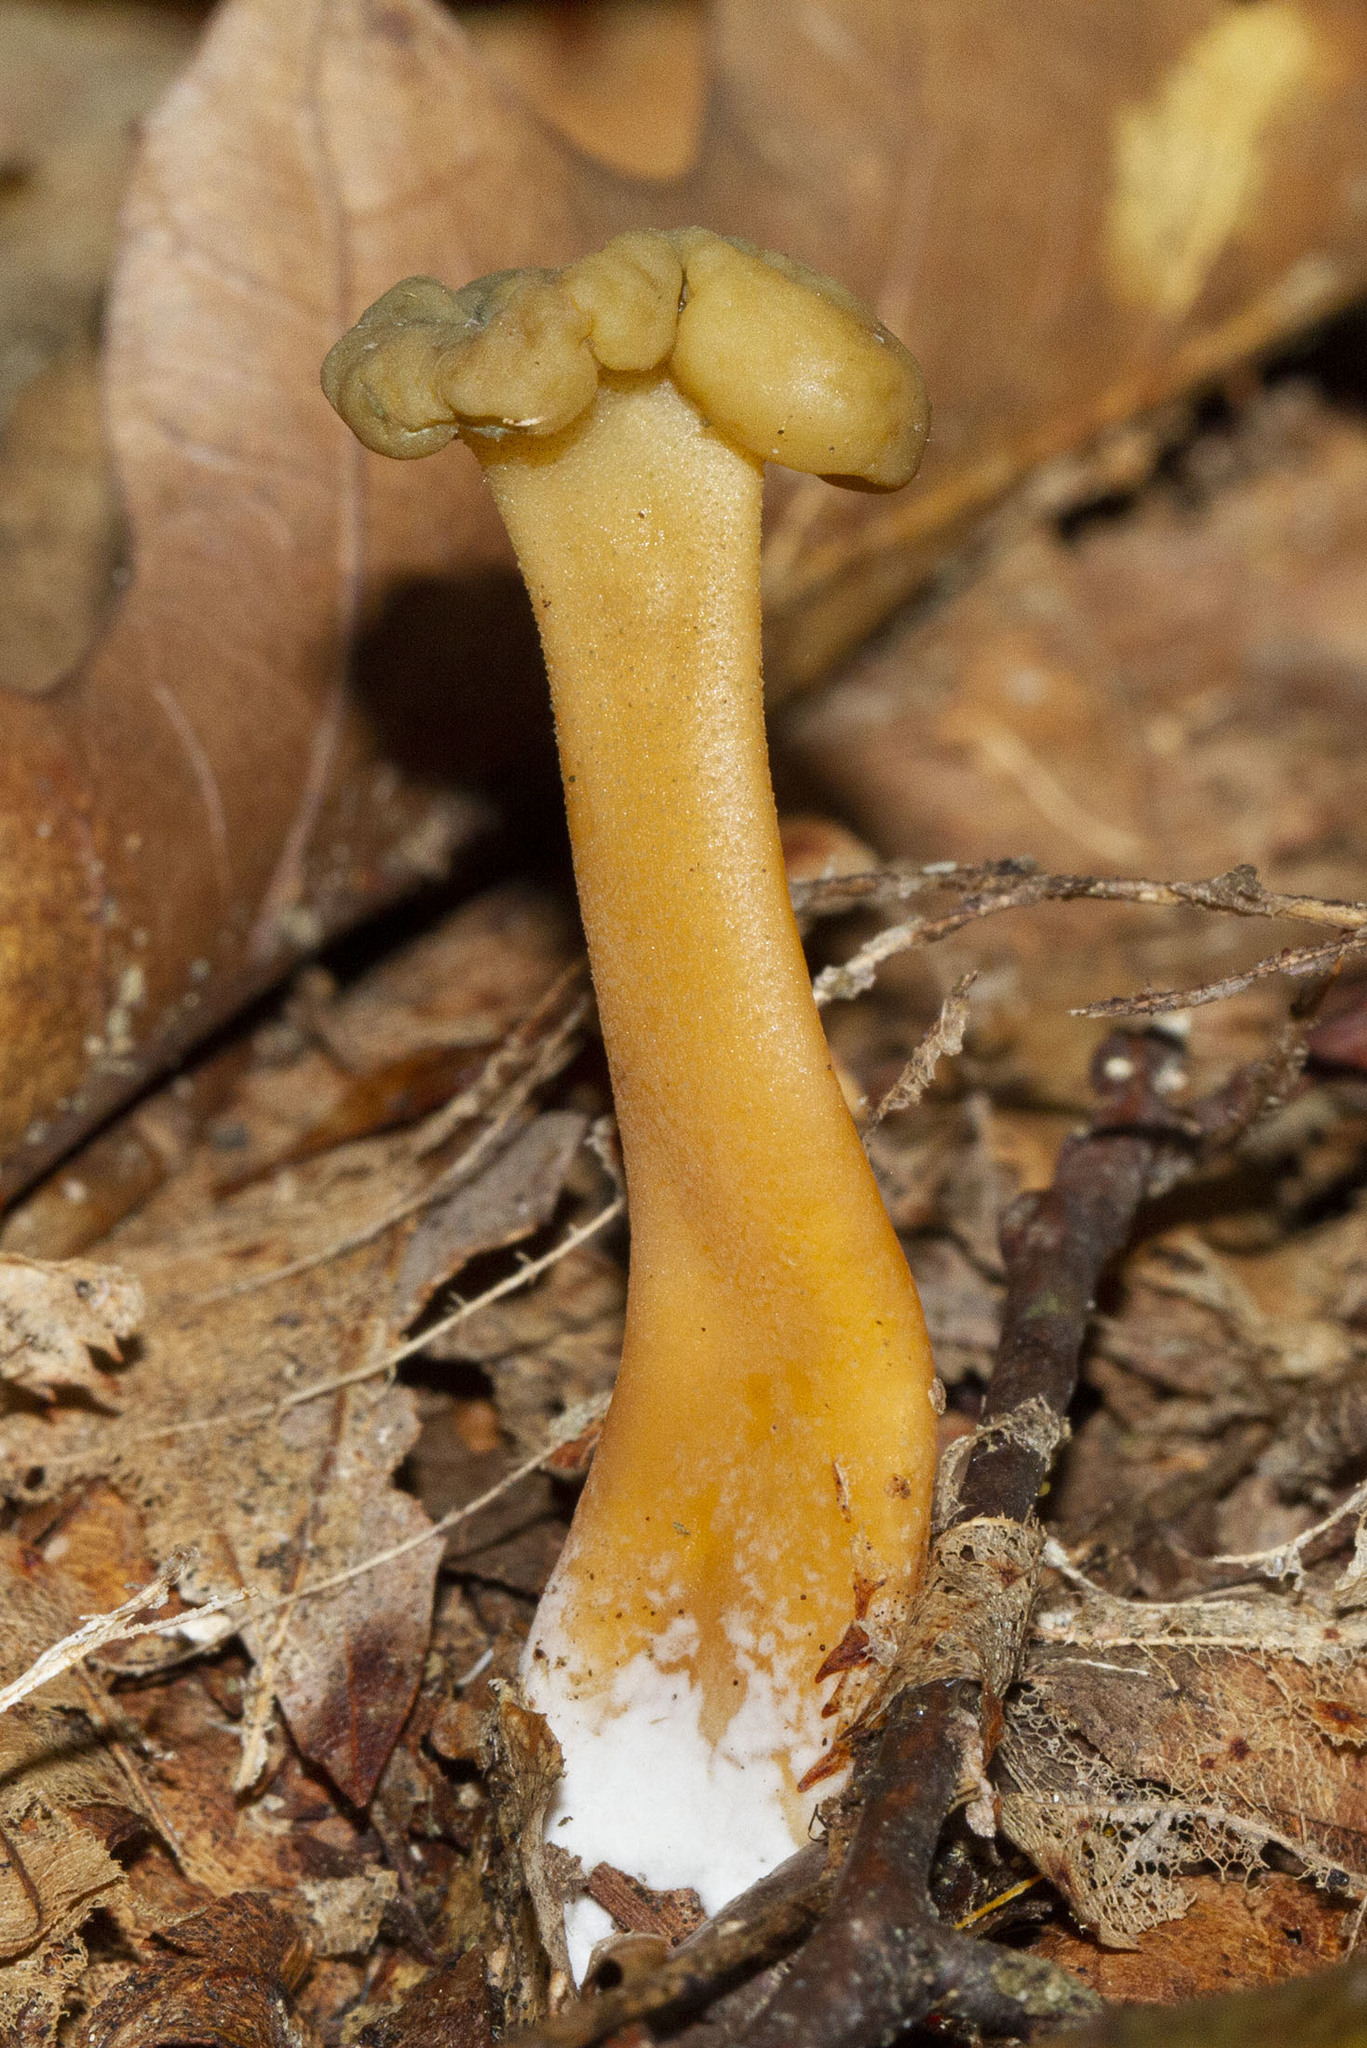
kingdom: Fungi
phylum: Ascomycota
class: Leotiomycetes
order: Leotiales
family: Leotiaceae
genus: Leotia
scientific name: Leotia lubrica
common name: Jellybaby
